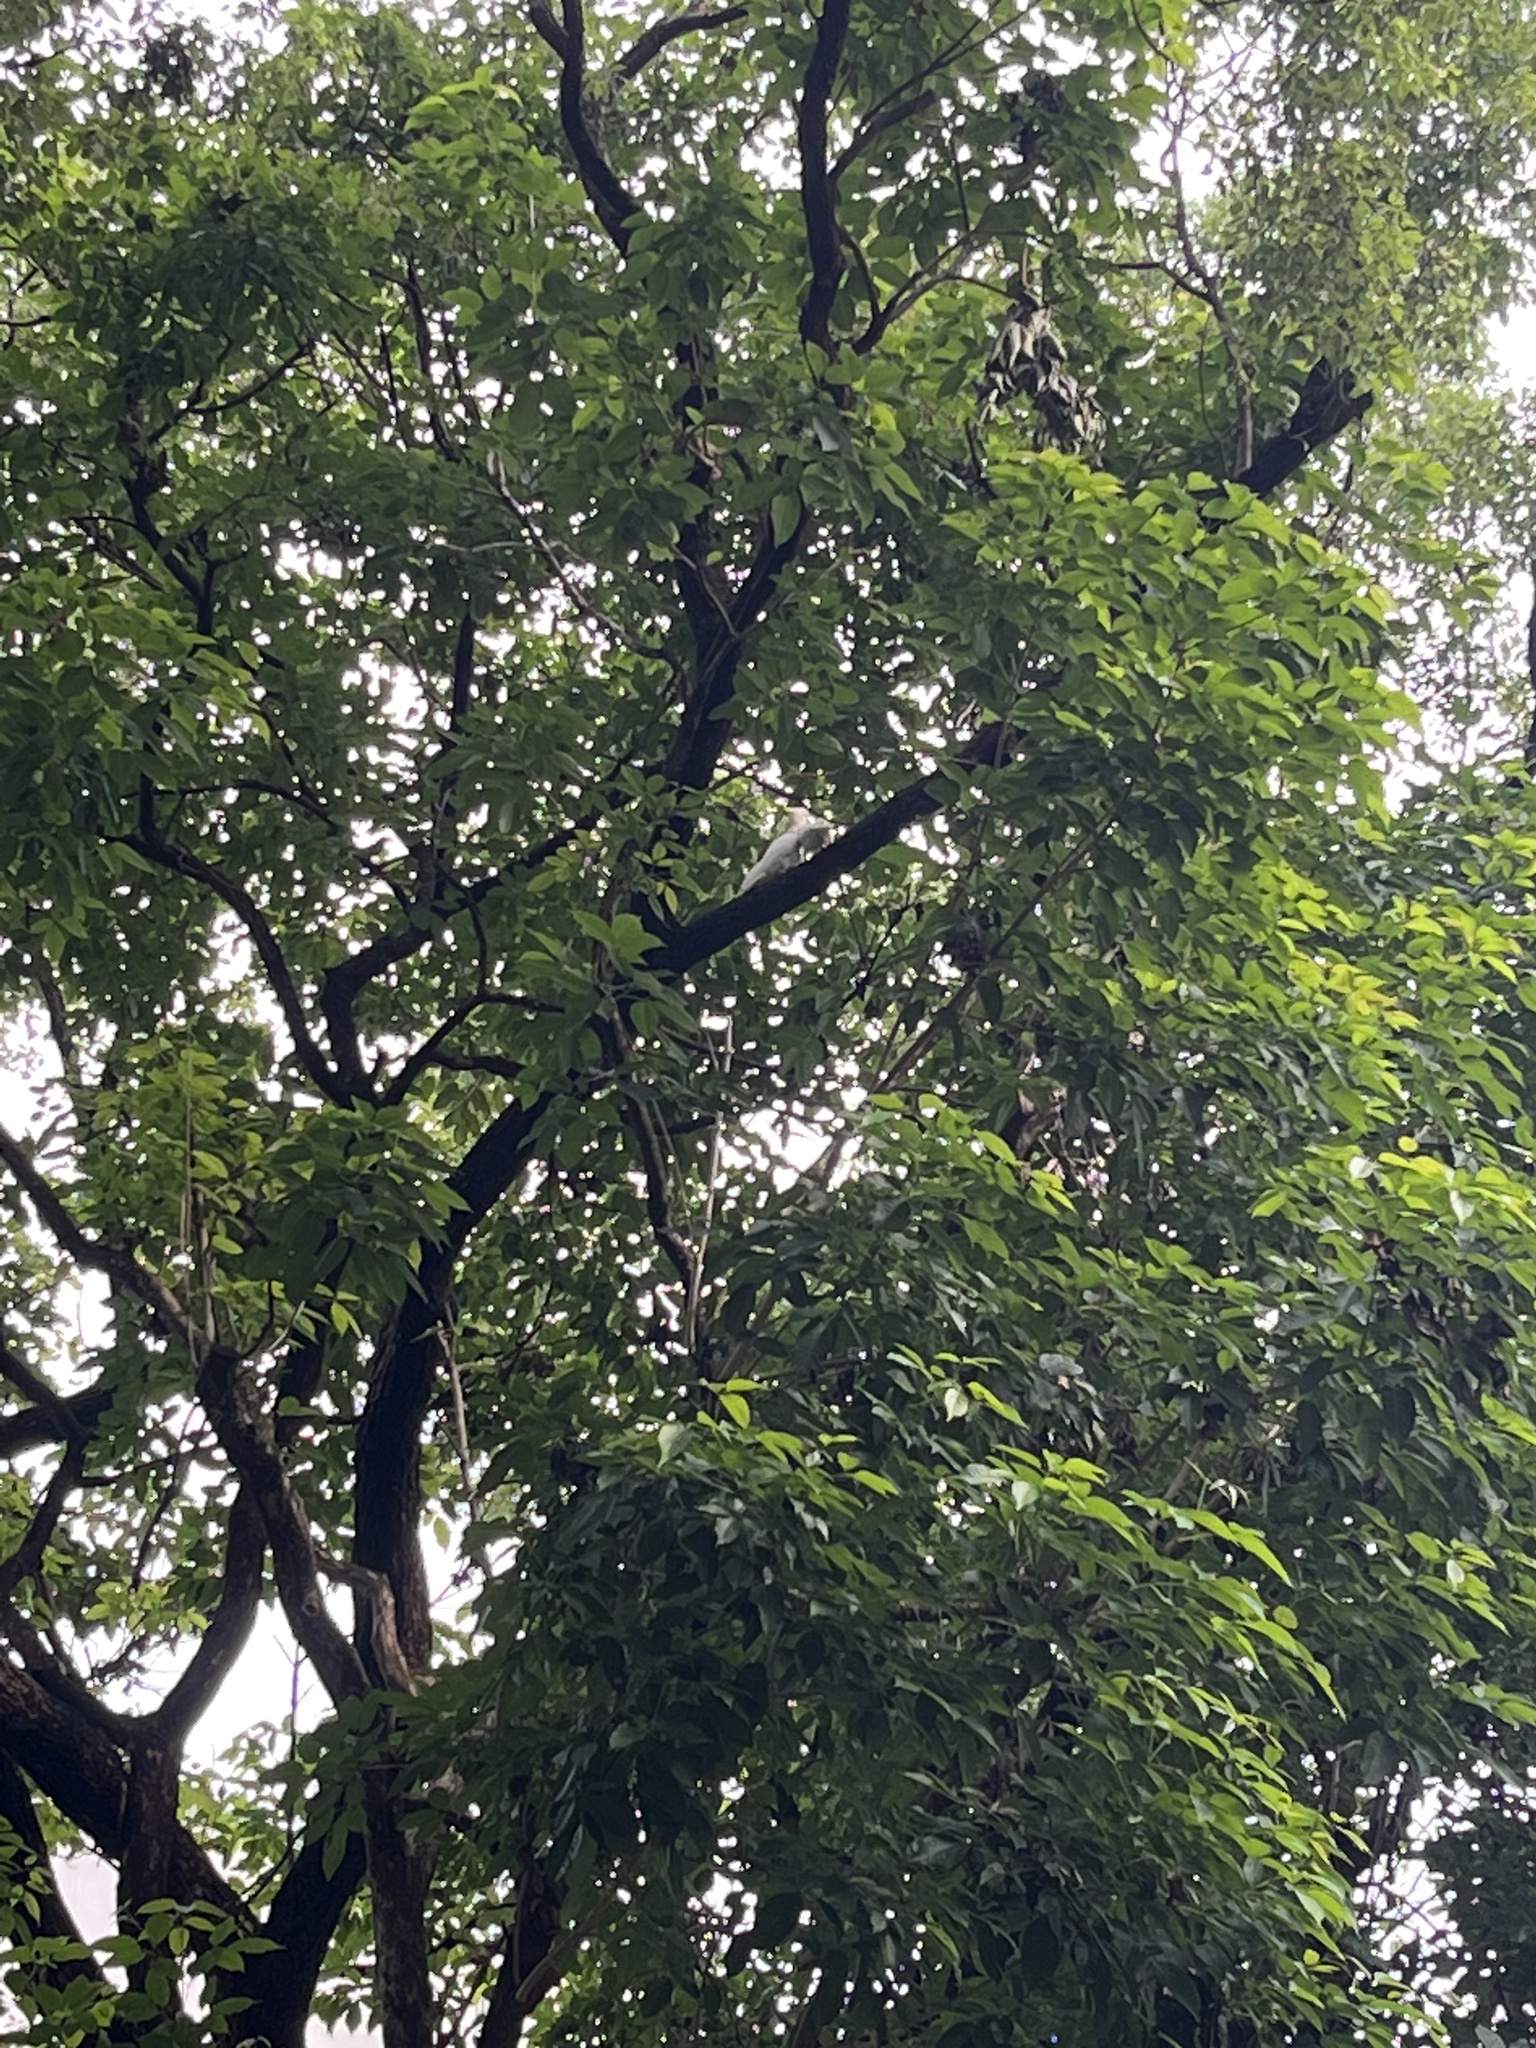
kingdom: Animalia
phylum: Chordata
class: Aves
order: Psittaciformes
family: Psittacidae
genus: Cacatua
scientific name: Cacatua sulphurea
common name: Yellow-crested cockatoo
